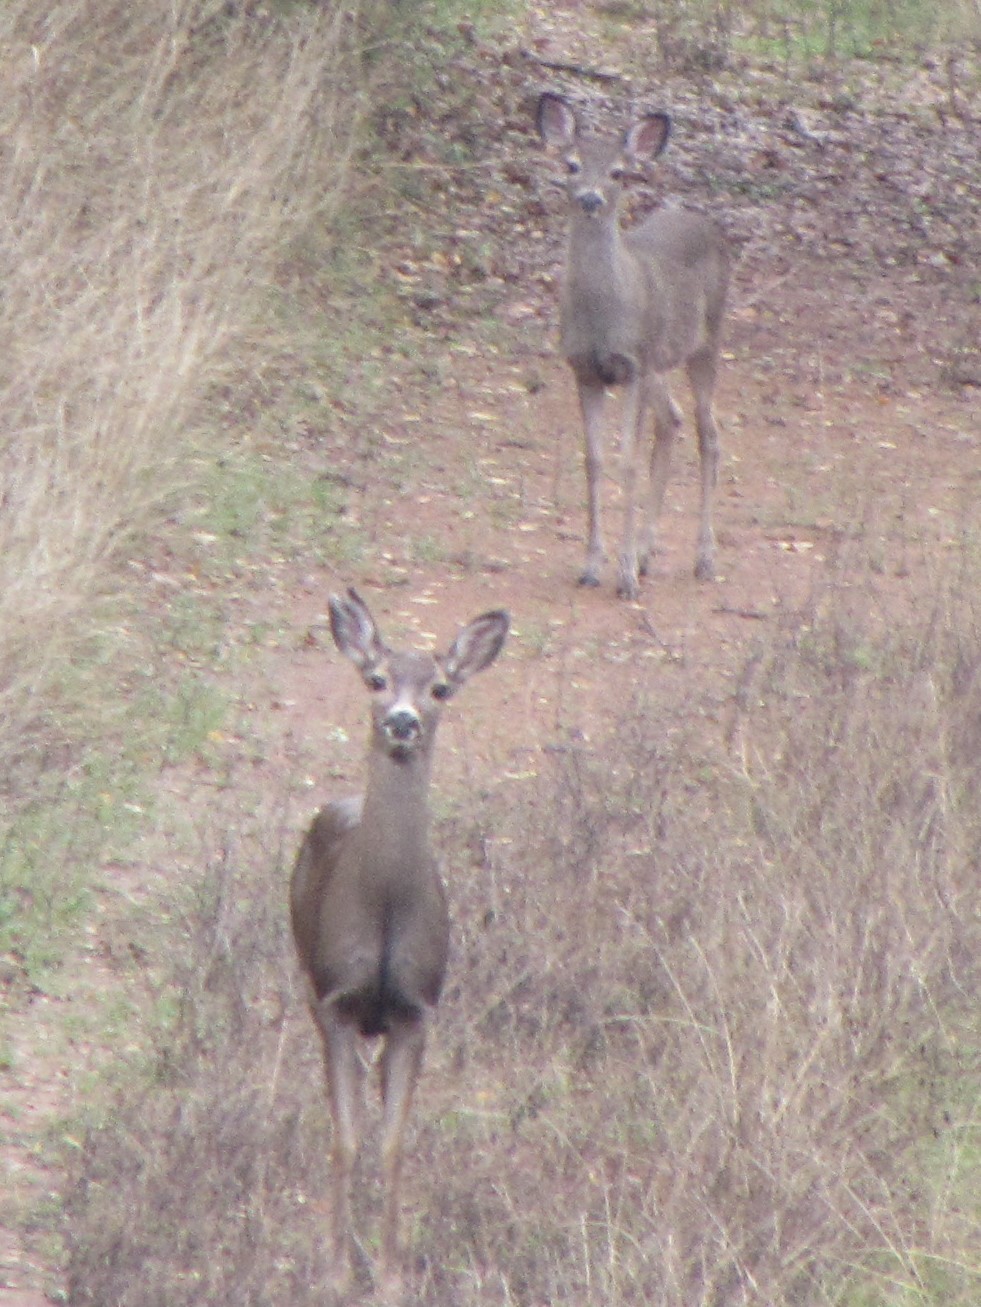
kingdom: Animalia
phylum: Chordata
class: Mammalia
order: Artiodactyla
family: Cervidae
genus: Odocoileus
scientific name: Odocoileus hemionus
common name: Mule deer
